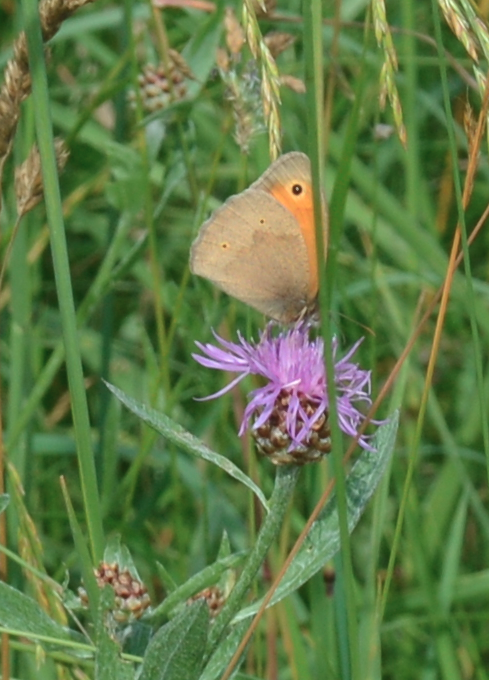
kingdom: Animalia
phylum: Arthropoda
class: Insecta
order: Lepidoptera
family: Nymphalidae
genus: Maniola
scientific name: Maniola jurtina
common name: Meadow brown
